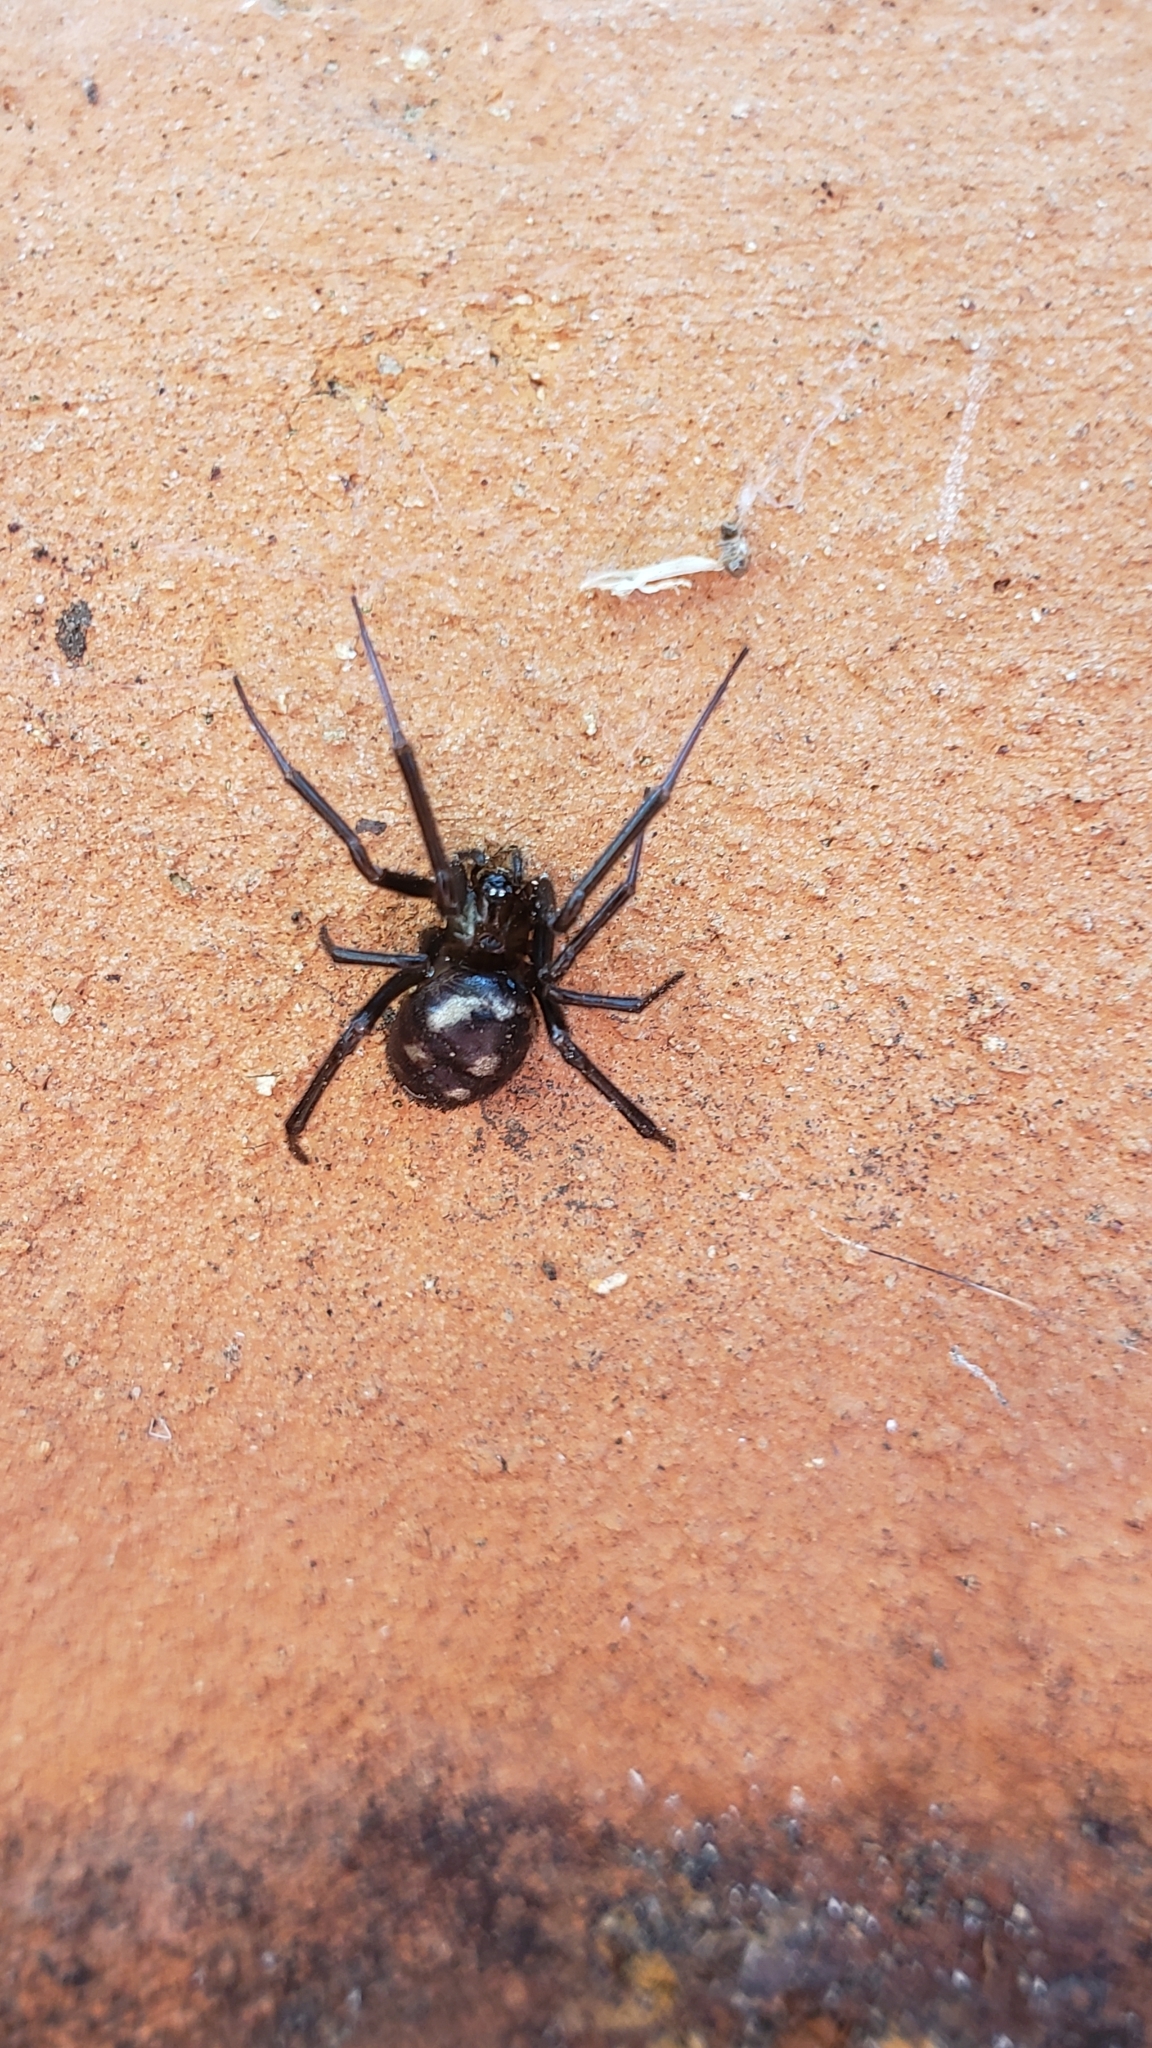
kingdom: Animalia
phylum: Arthropoda
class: Arachnida
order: Araneae
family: Theridiidae
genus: Steatoda
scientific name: Steatoda grossa
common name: False black widow
